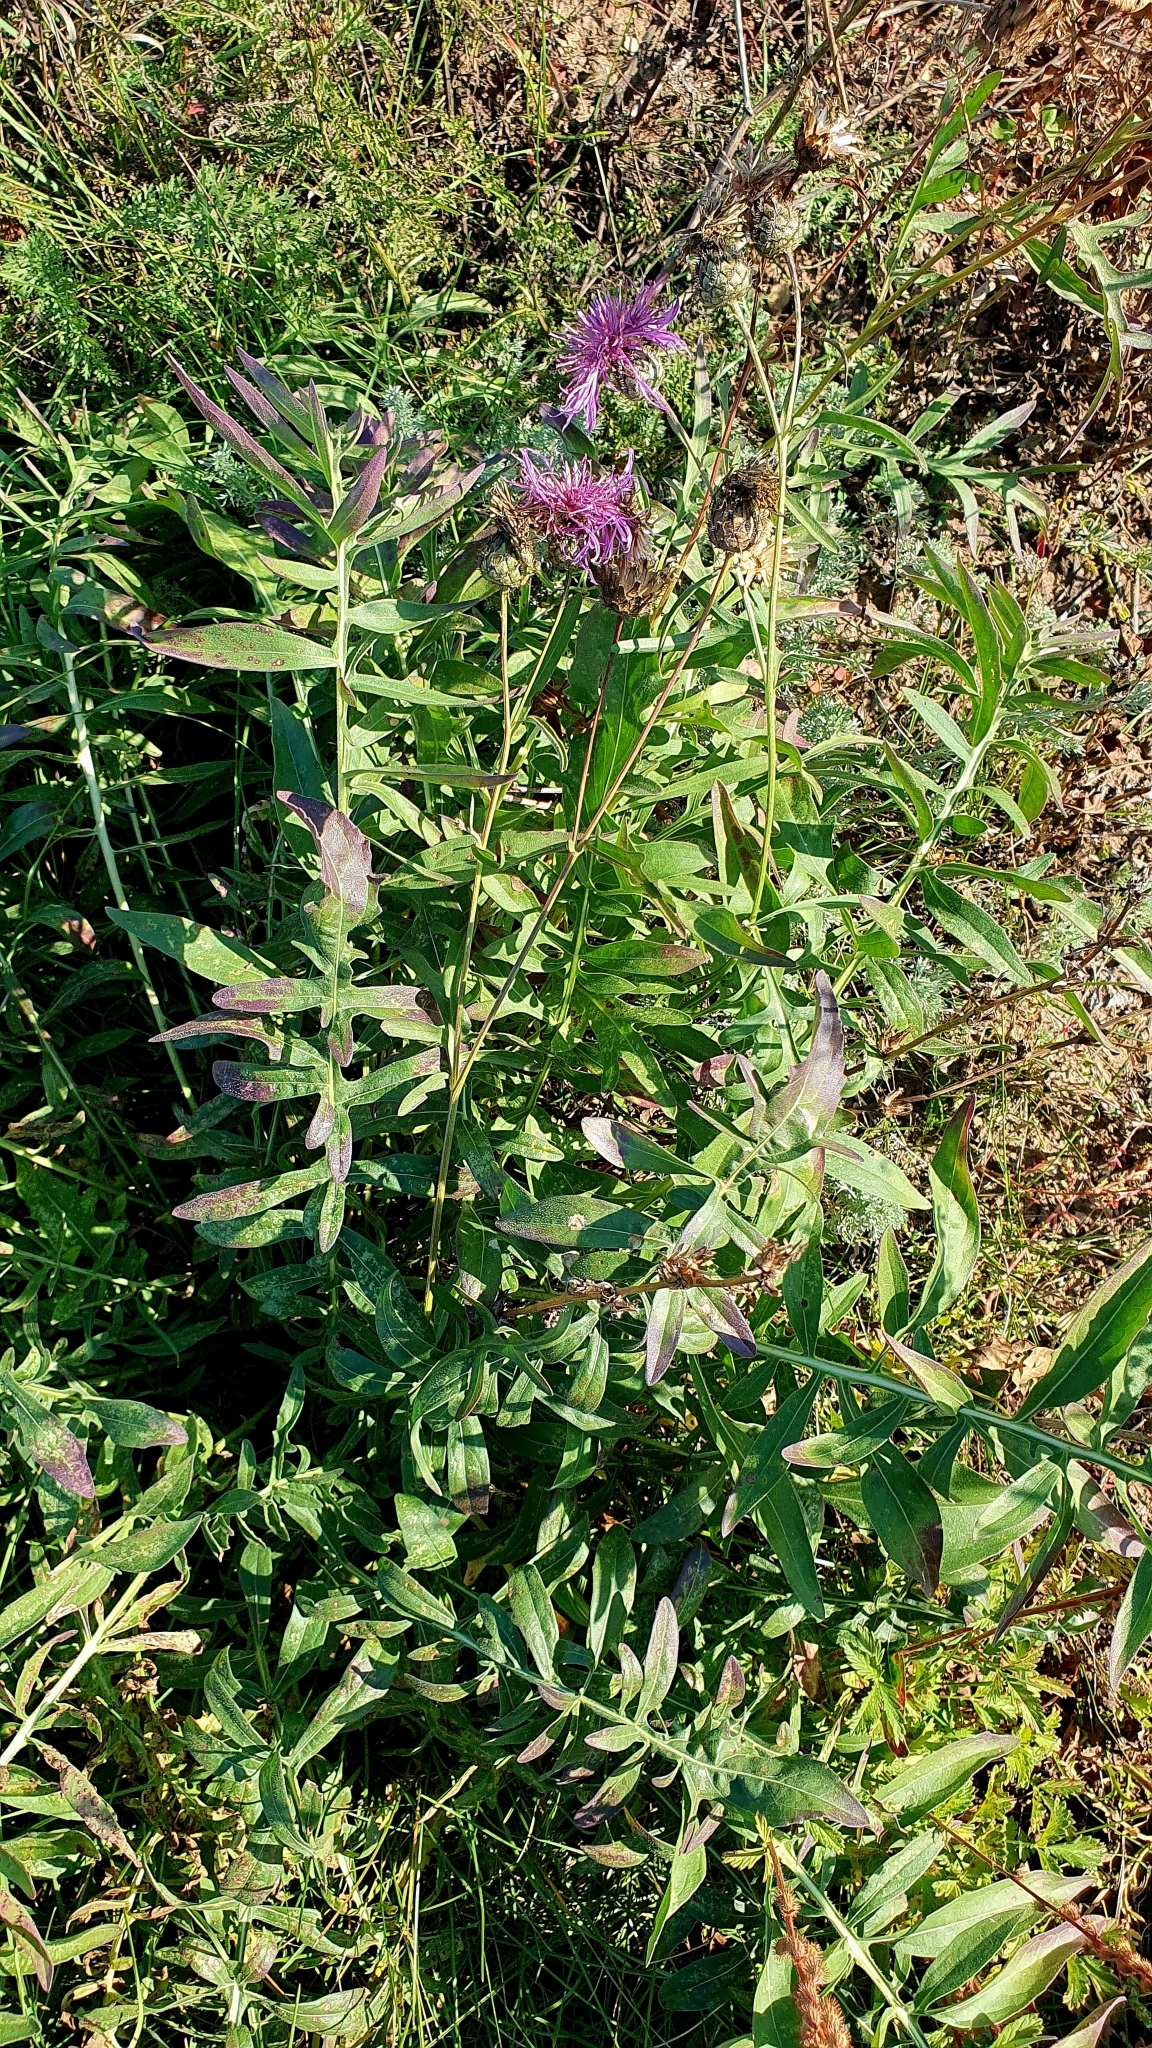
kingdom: Plantae
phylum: Tracheophyta
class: Magnoliopsida
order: Asterales
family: Asteraceae
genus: Centaurea
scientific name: Centaurea scabiosa
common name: Greater knapweed
